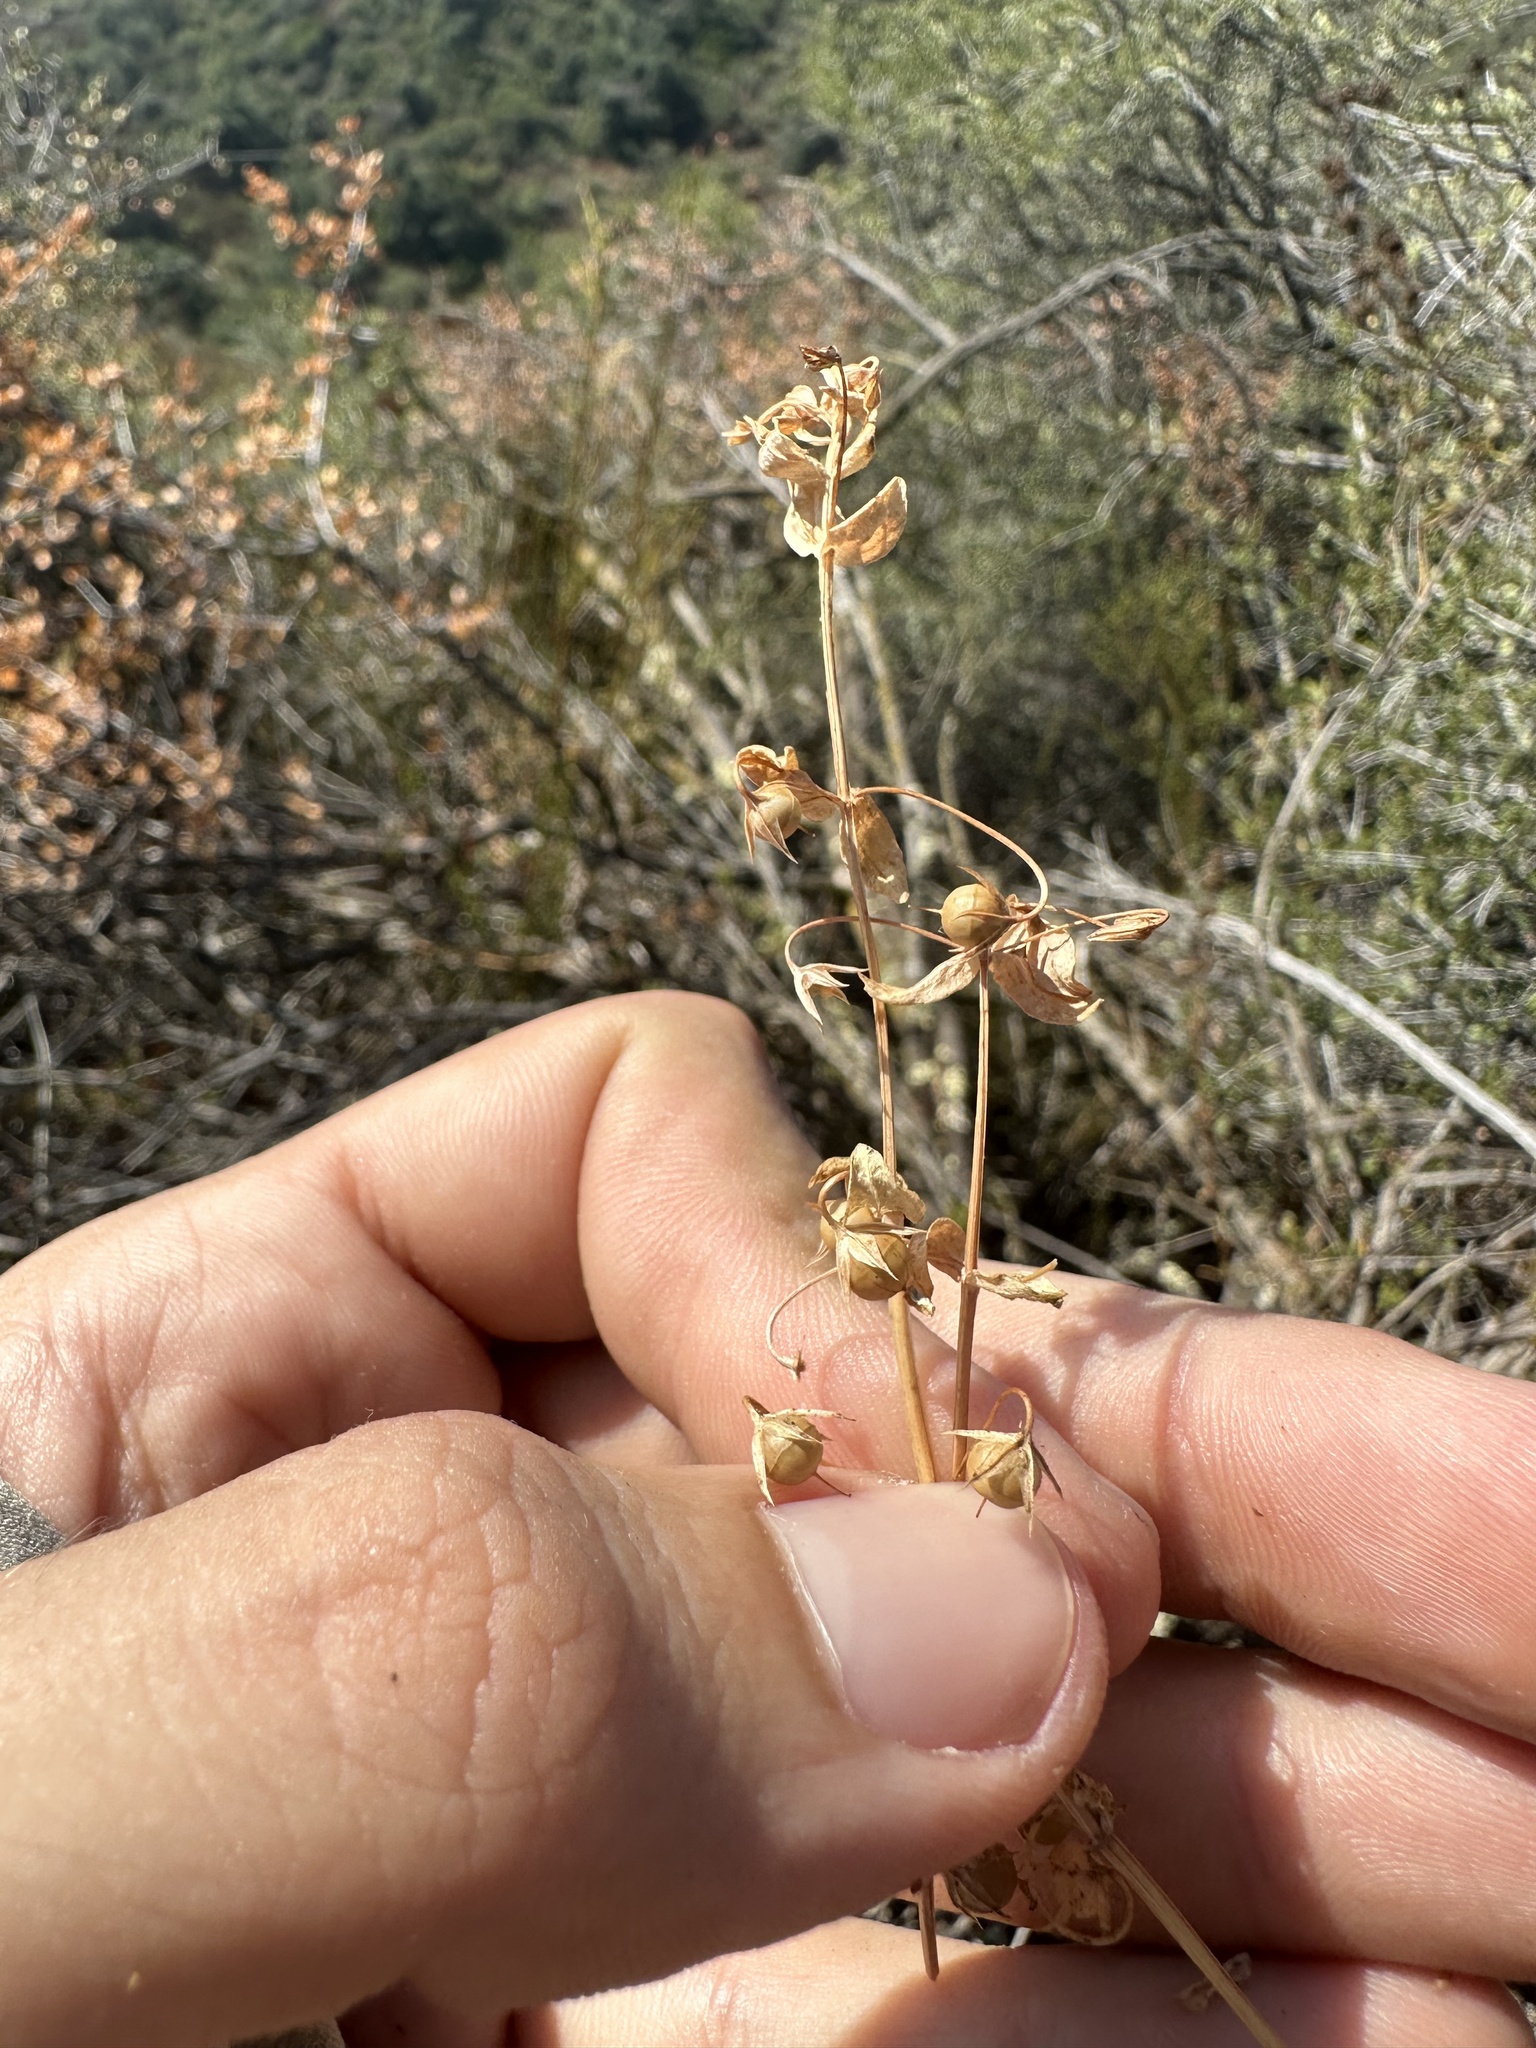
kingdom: Plantae
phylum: Tracheophyta
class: Magnoliopsida
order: Ericales
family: Primulaceae
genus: Lysimachia
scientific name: Lysimachia arvensis
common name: Scarlet pimpernel
